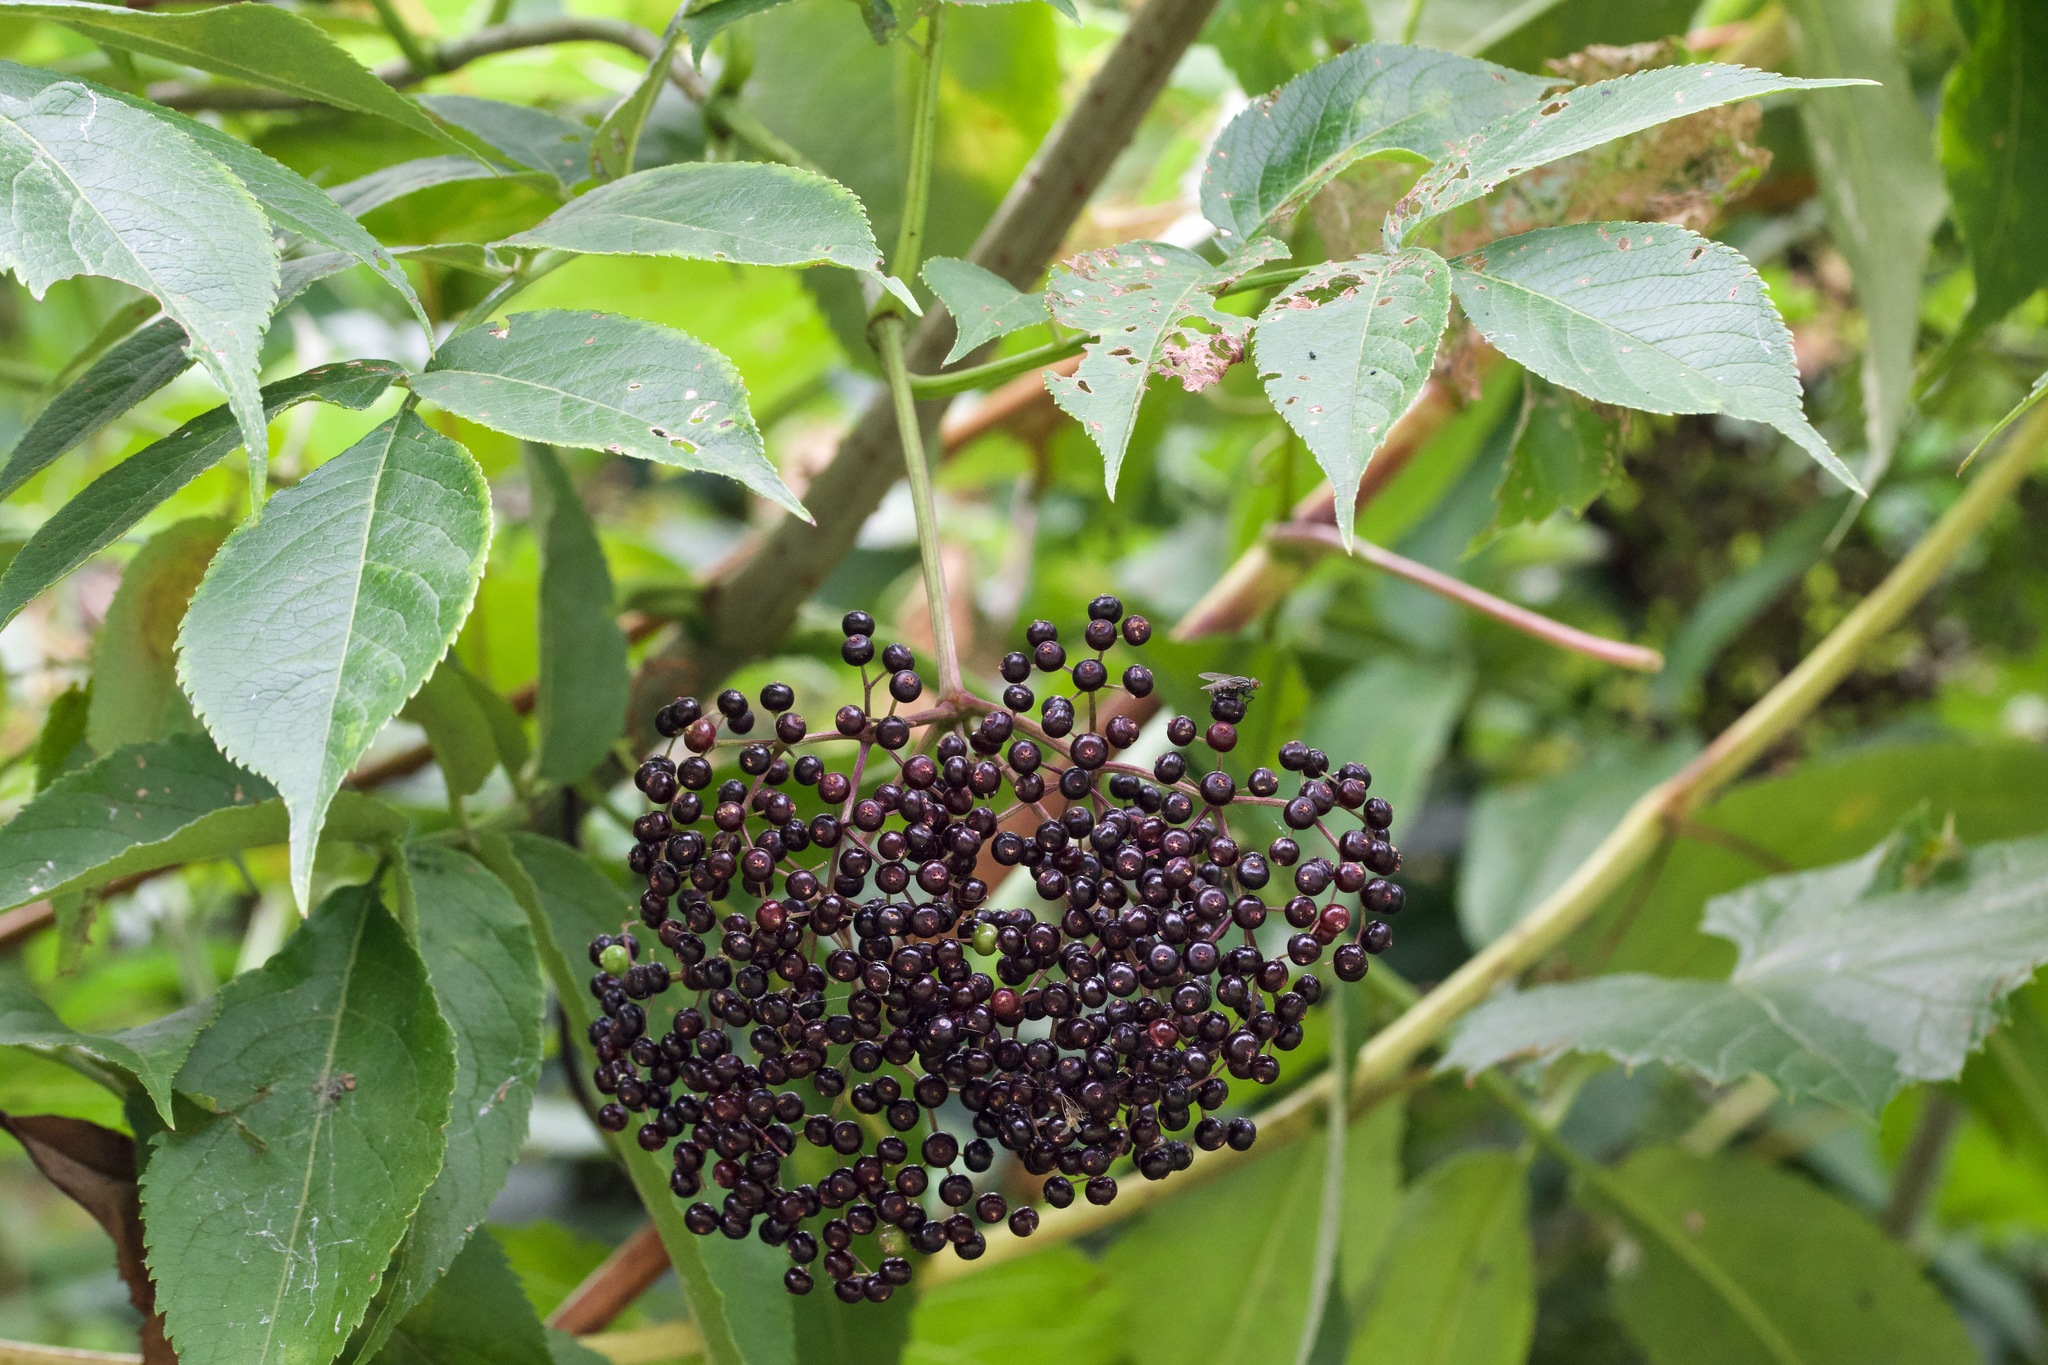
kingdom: Plantae
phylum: Tracheophyta
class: Magnoliopsida
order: Dipsacales
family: Viburnaceae
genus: Sambucus
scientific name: Sambucus canadensis
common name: American elder
